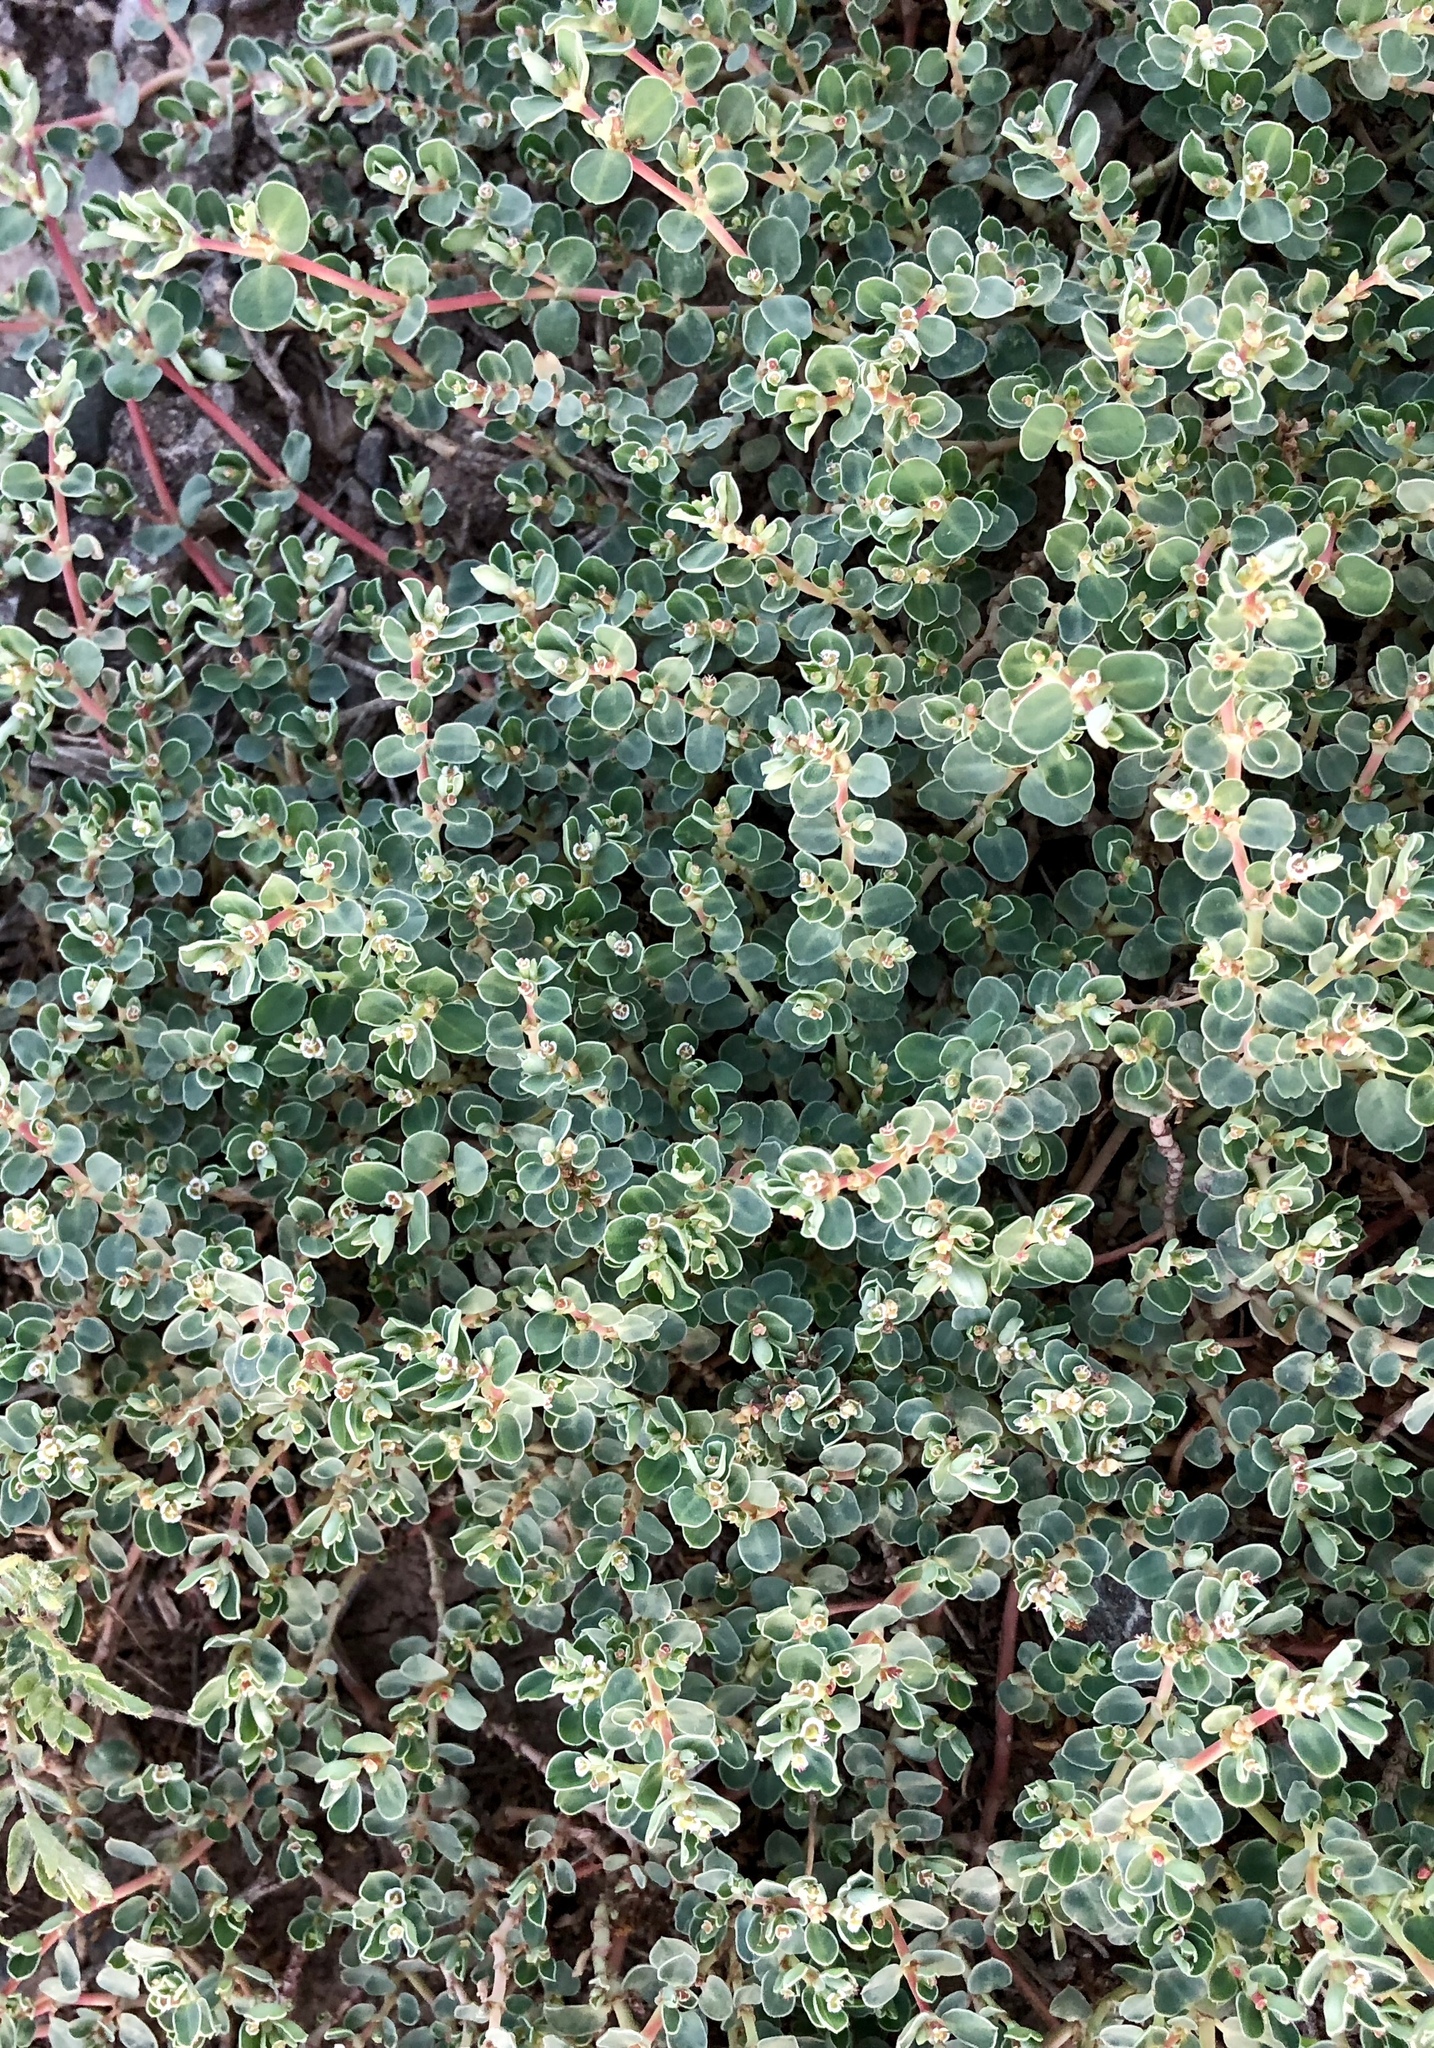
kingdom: Plantae
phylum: Tracheophyta
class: Magnoliopsida
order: Malpighiales
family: Euphorbiaceae
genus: Euphorbia
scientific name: Euphorbia albomarginata
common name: Whitemargin sandmat
